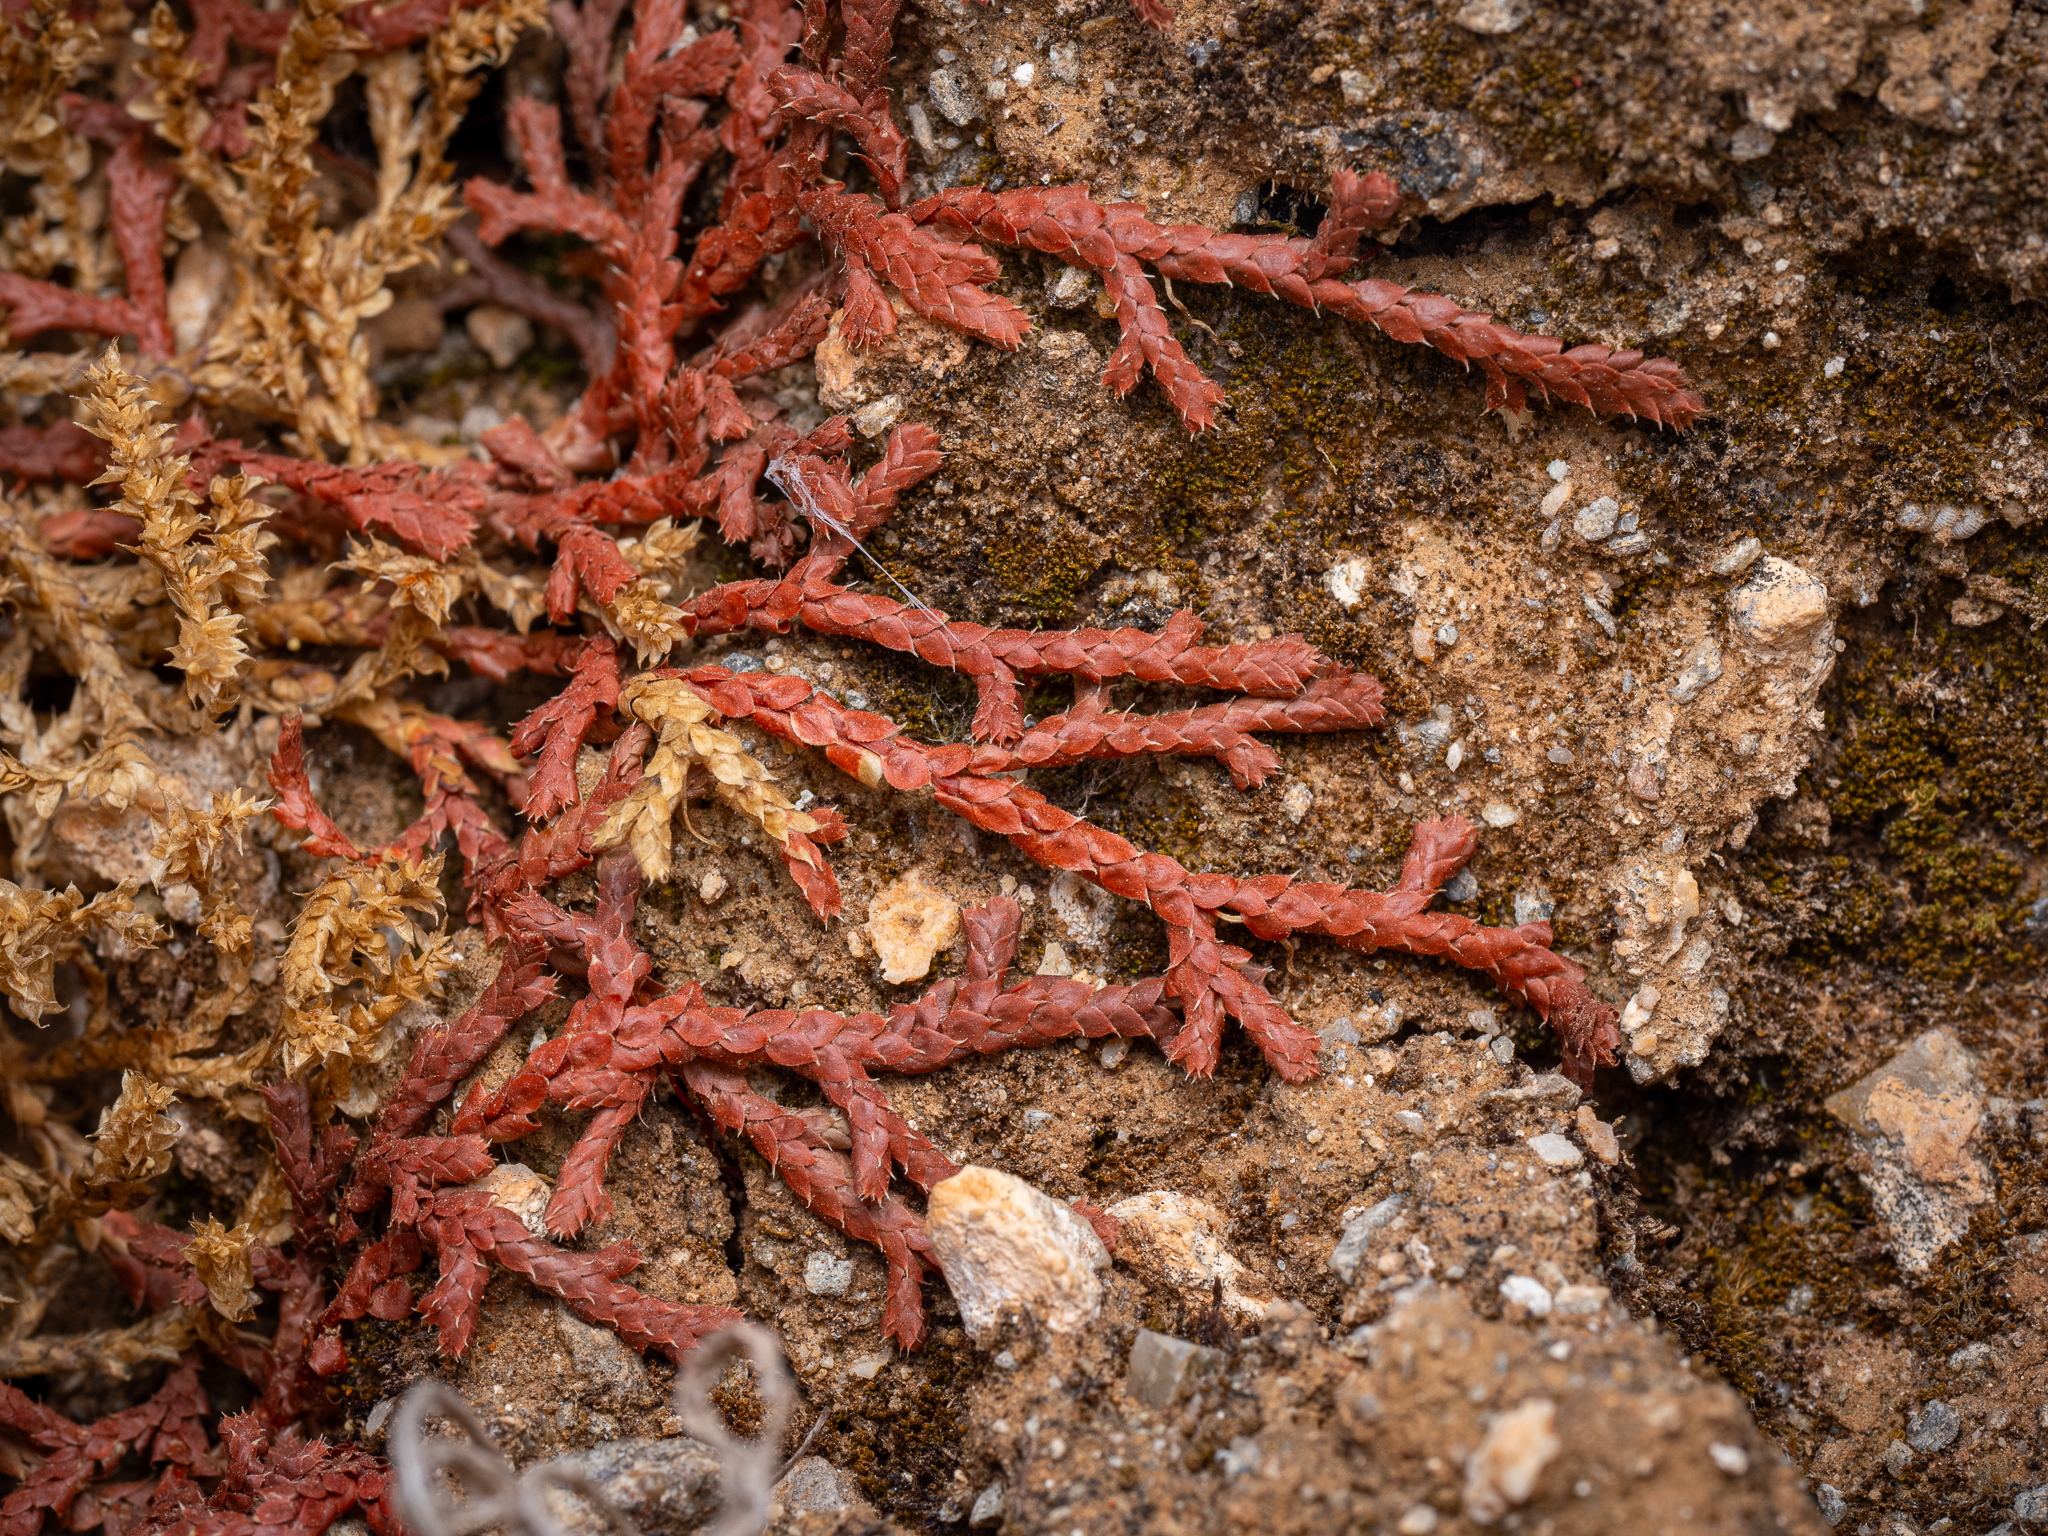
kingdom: Plantae
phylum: Tracheophyta
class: Lycopodiopsida
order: Selaginellales
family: Selaginellaceae
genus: Selaginella
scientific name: Selaginella denticulata
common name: Toothed-leaved clubmoss
